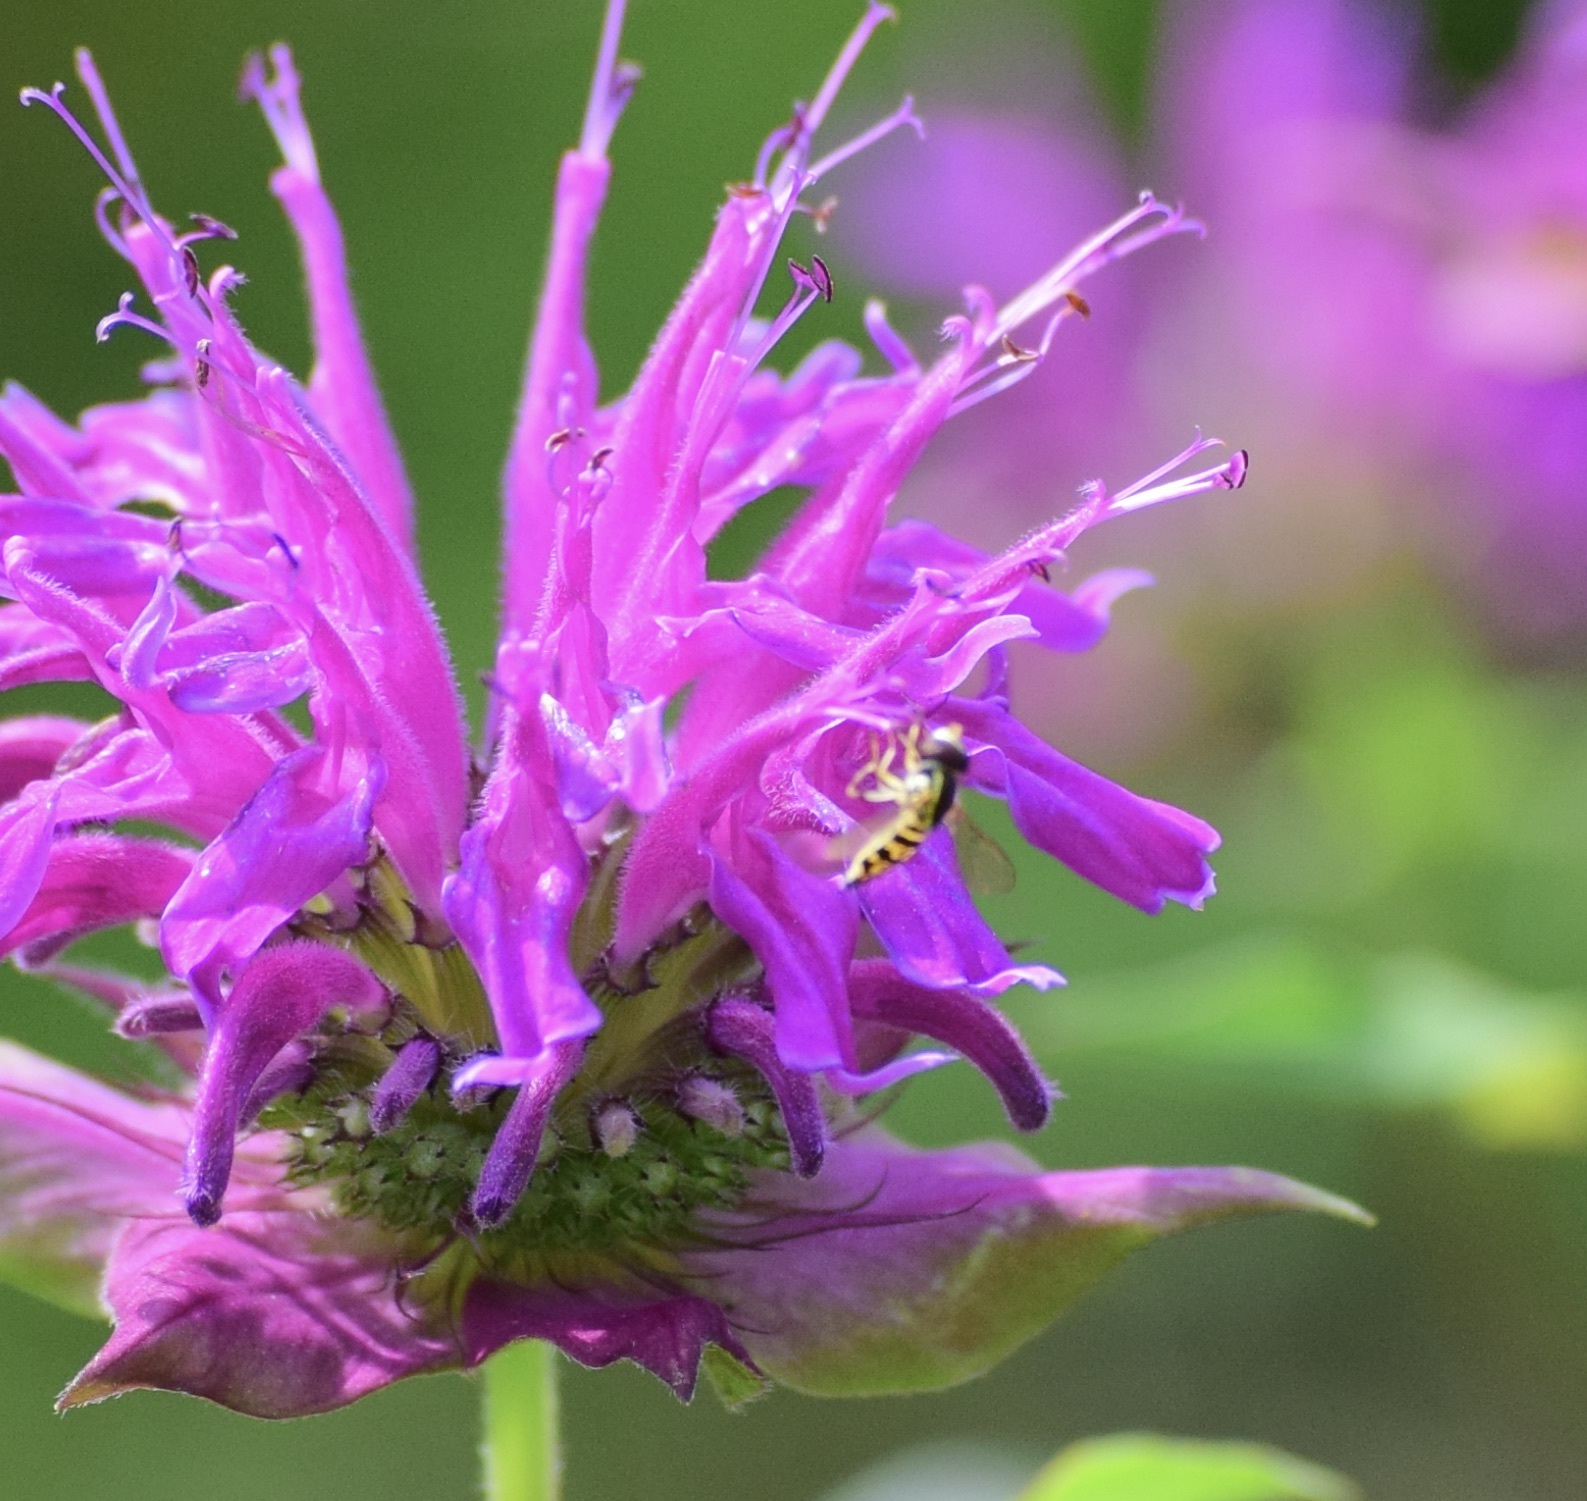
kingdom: Animalia
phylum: Arthropoda
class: Insecta
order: Diptera
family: Syrphidae
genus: Toxomerus
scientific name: Toxomerus geminatus
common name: Eastern calligrapher
